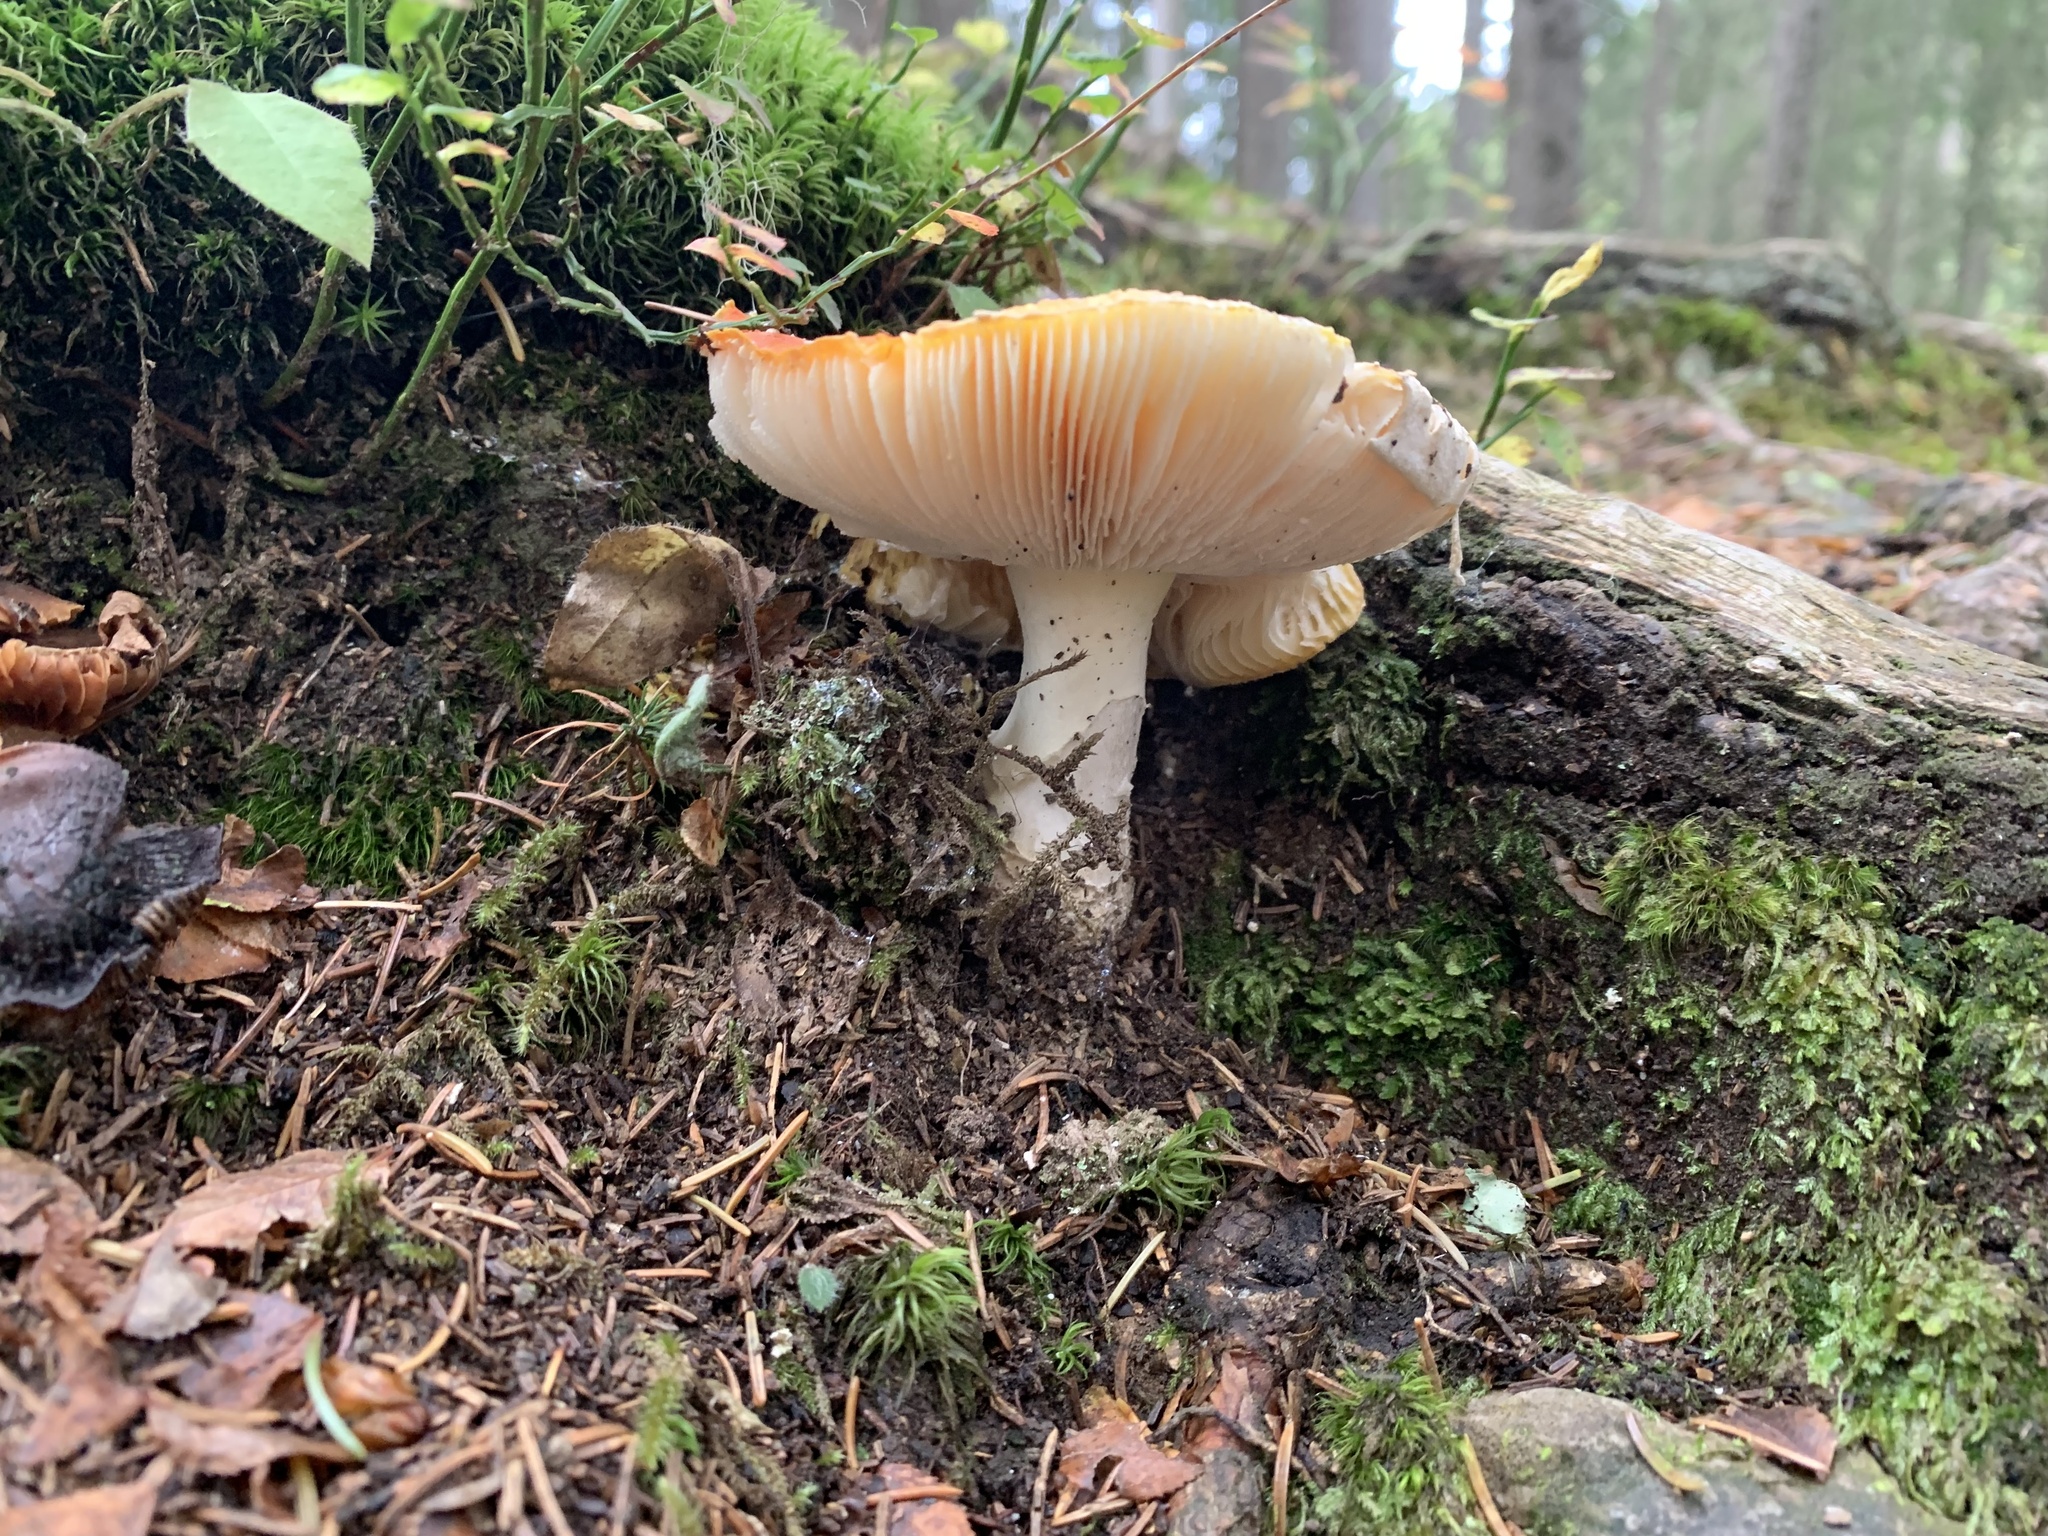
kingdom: Fungi
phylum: Basidiomycota
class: Agaricomycetes
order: Agaricales
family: Amanitaceae
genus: Amanita
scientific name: Amanita muscaria
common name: Fly agaric
